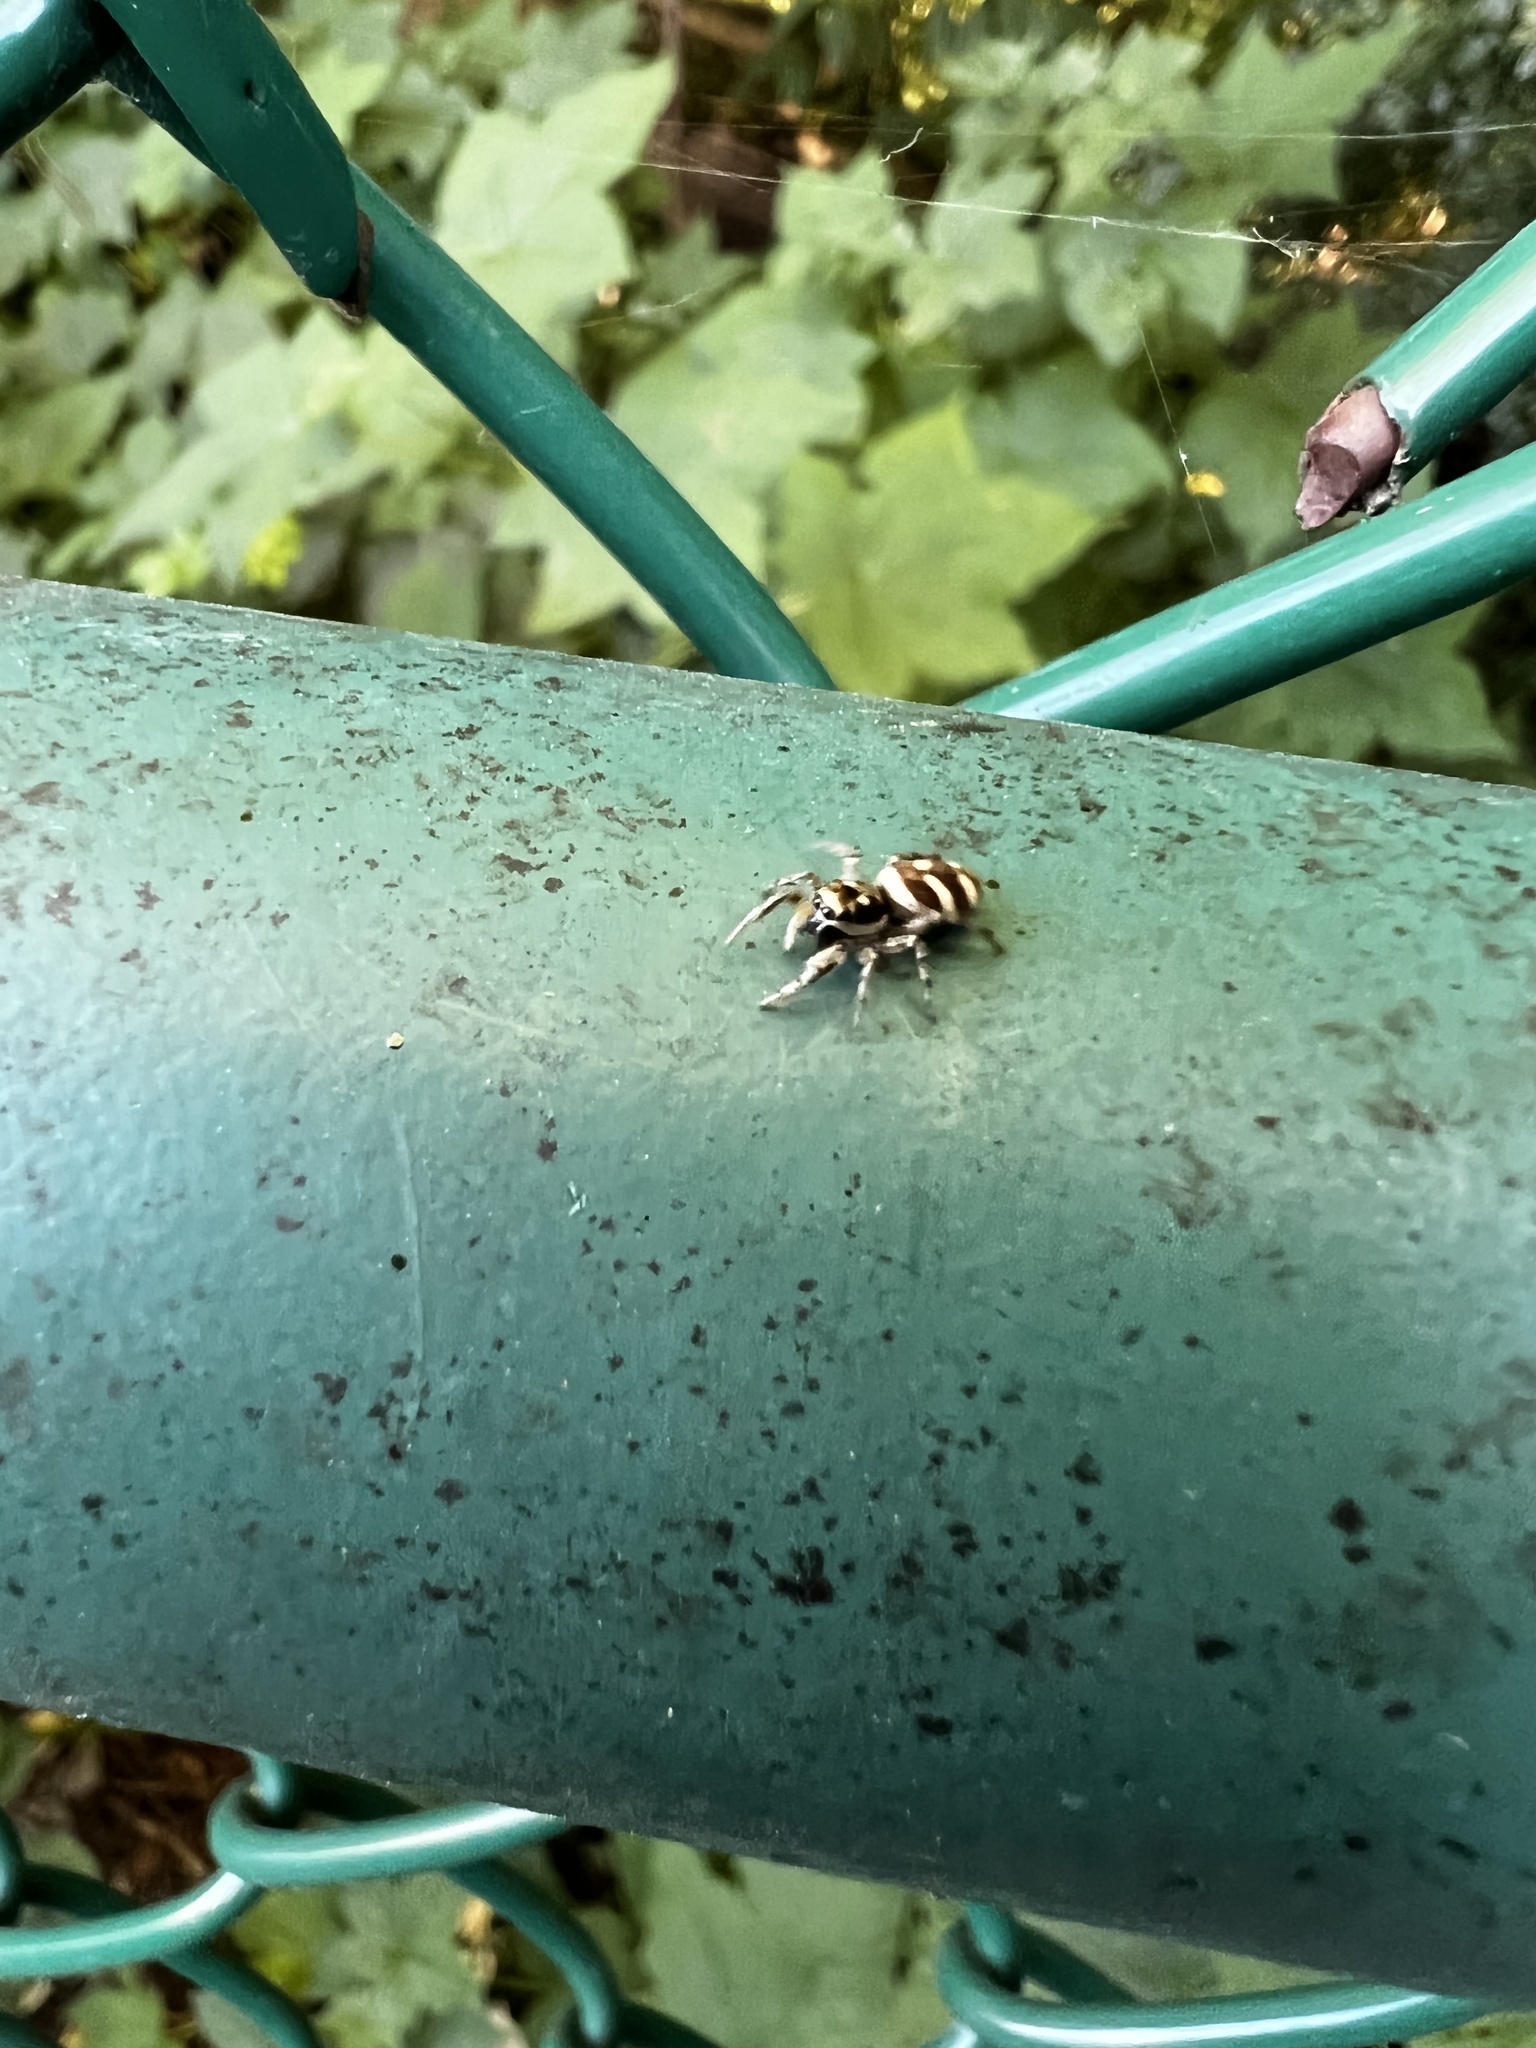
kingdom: Animalia
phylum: Arthropoda
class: Arachnida
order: Araneae
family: Salticidae
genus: Salticus
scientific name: Salticus scenicus
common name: Zebra jumper
